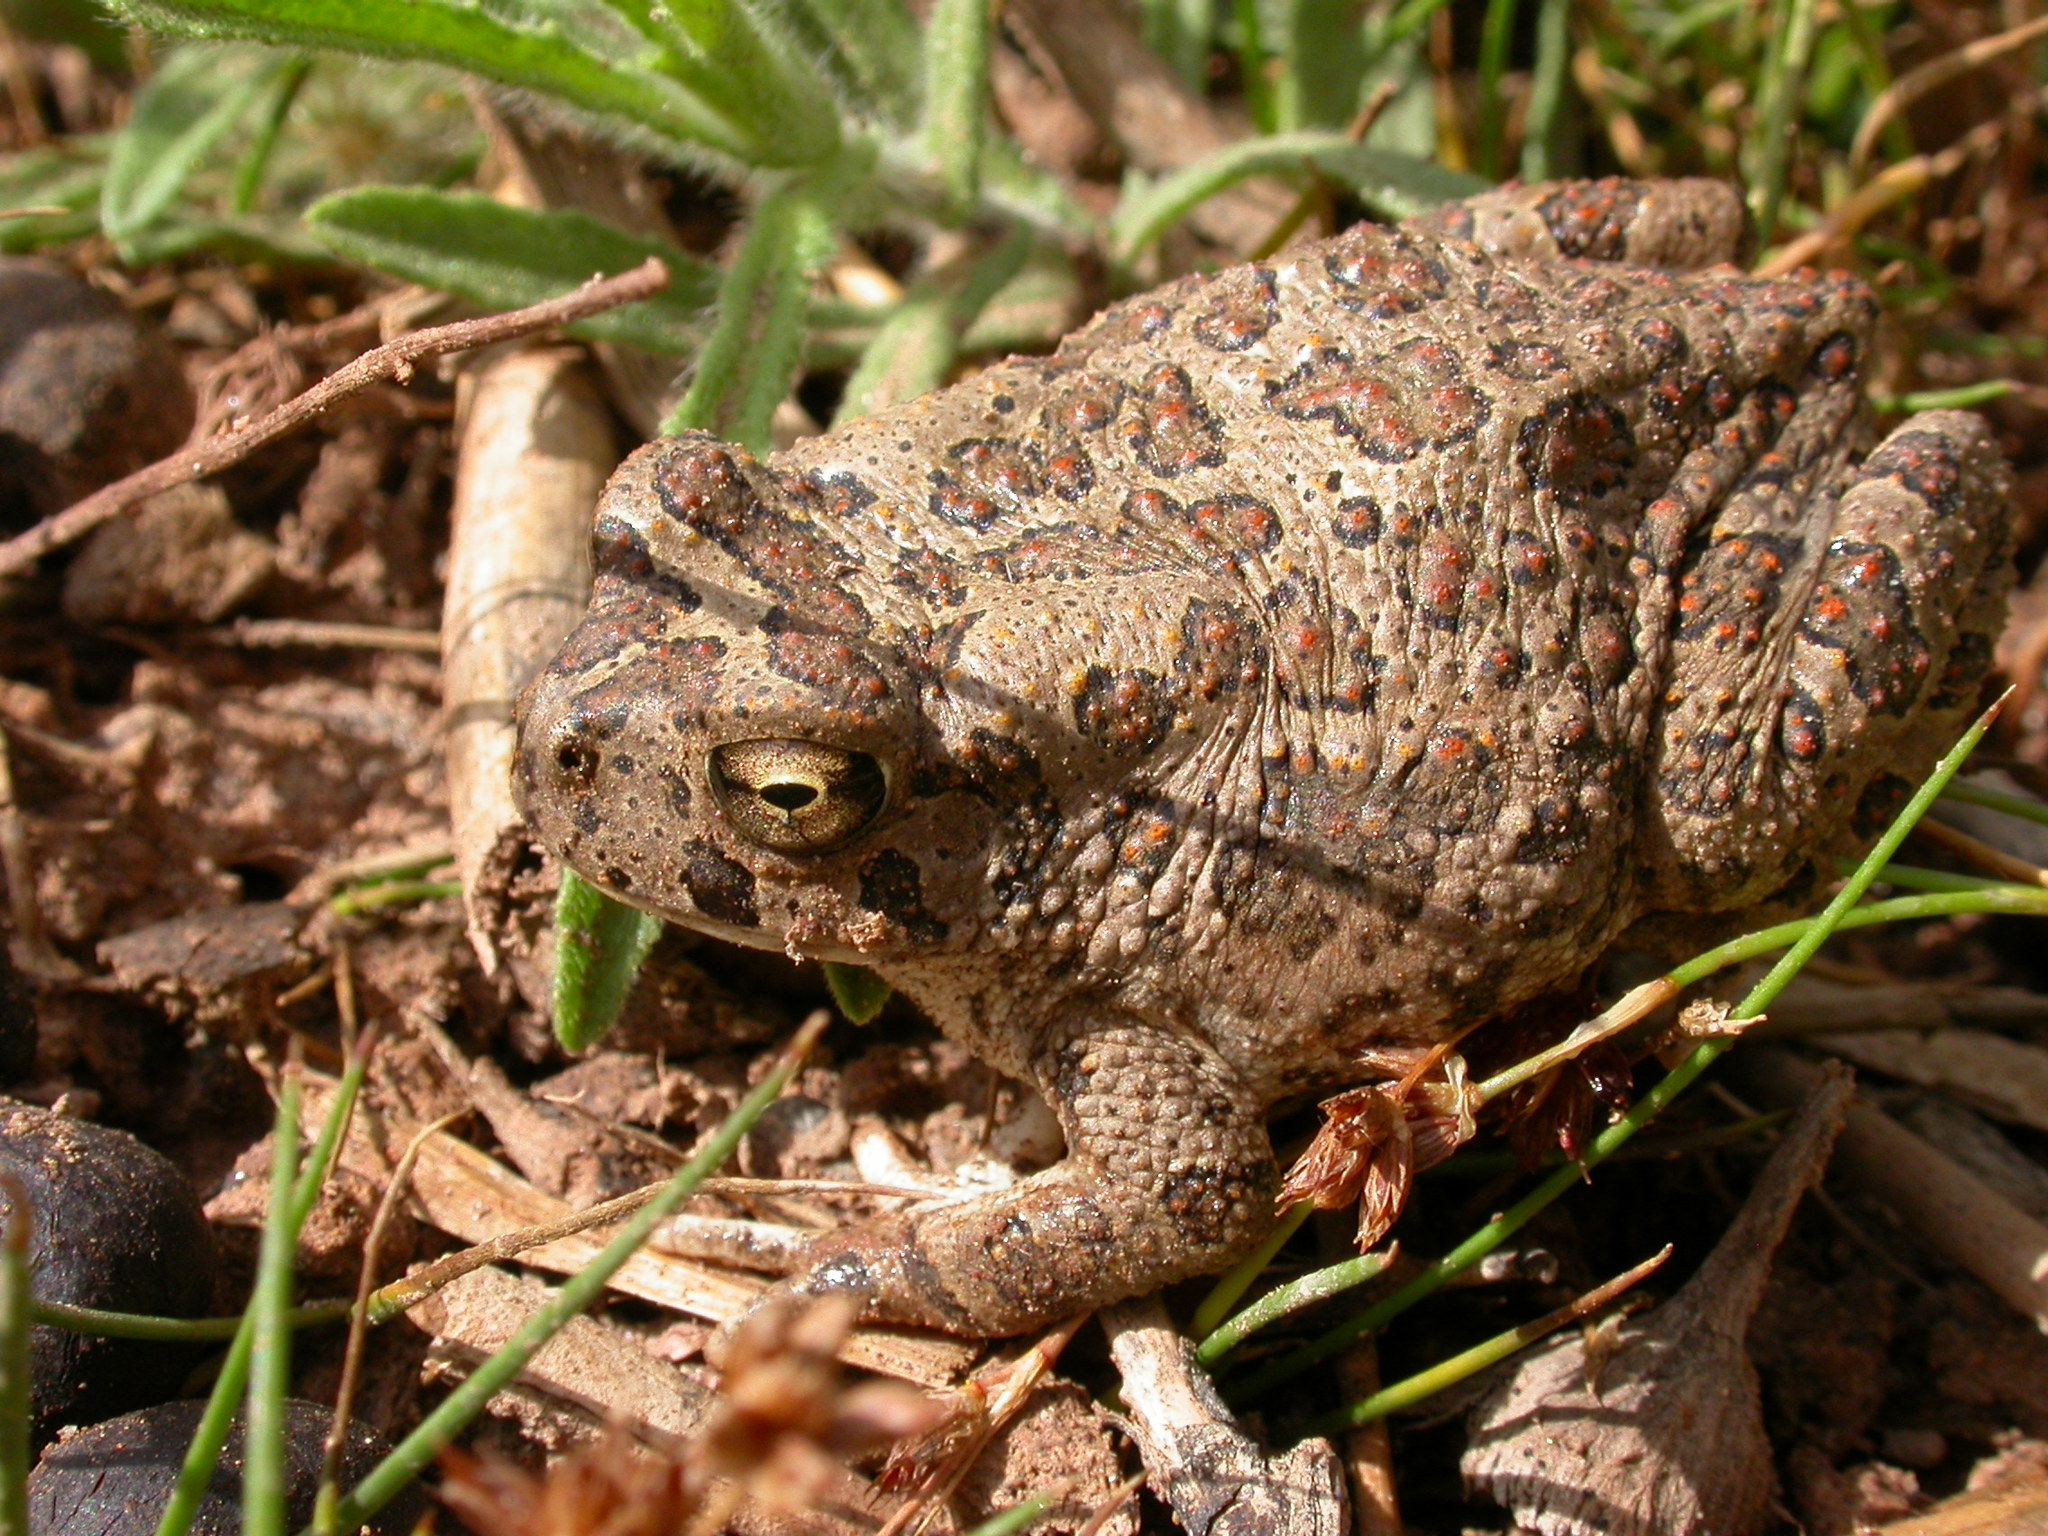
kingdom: Animalia
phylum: Chordata
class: Amphibia
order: Anura
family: Bufonidae
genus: Sclerophrys
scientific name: Sclerophrys mauritanica
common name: Berber toad
